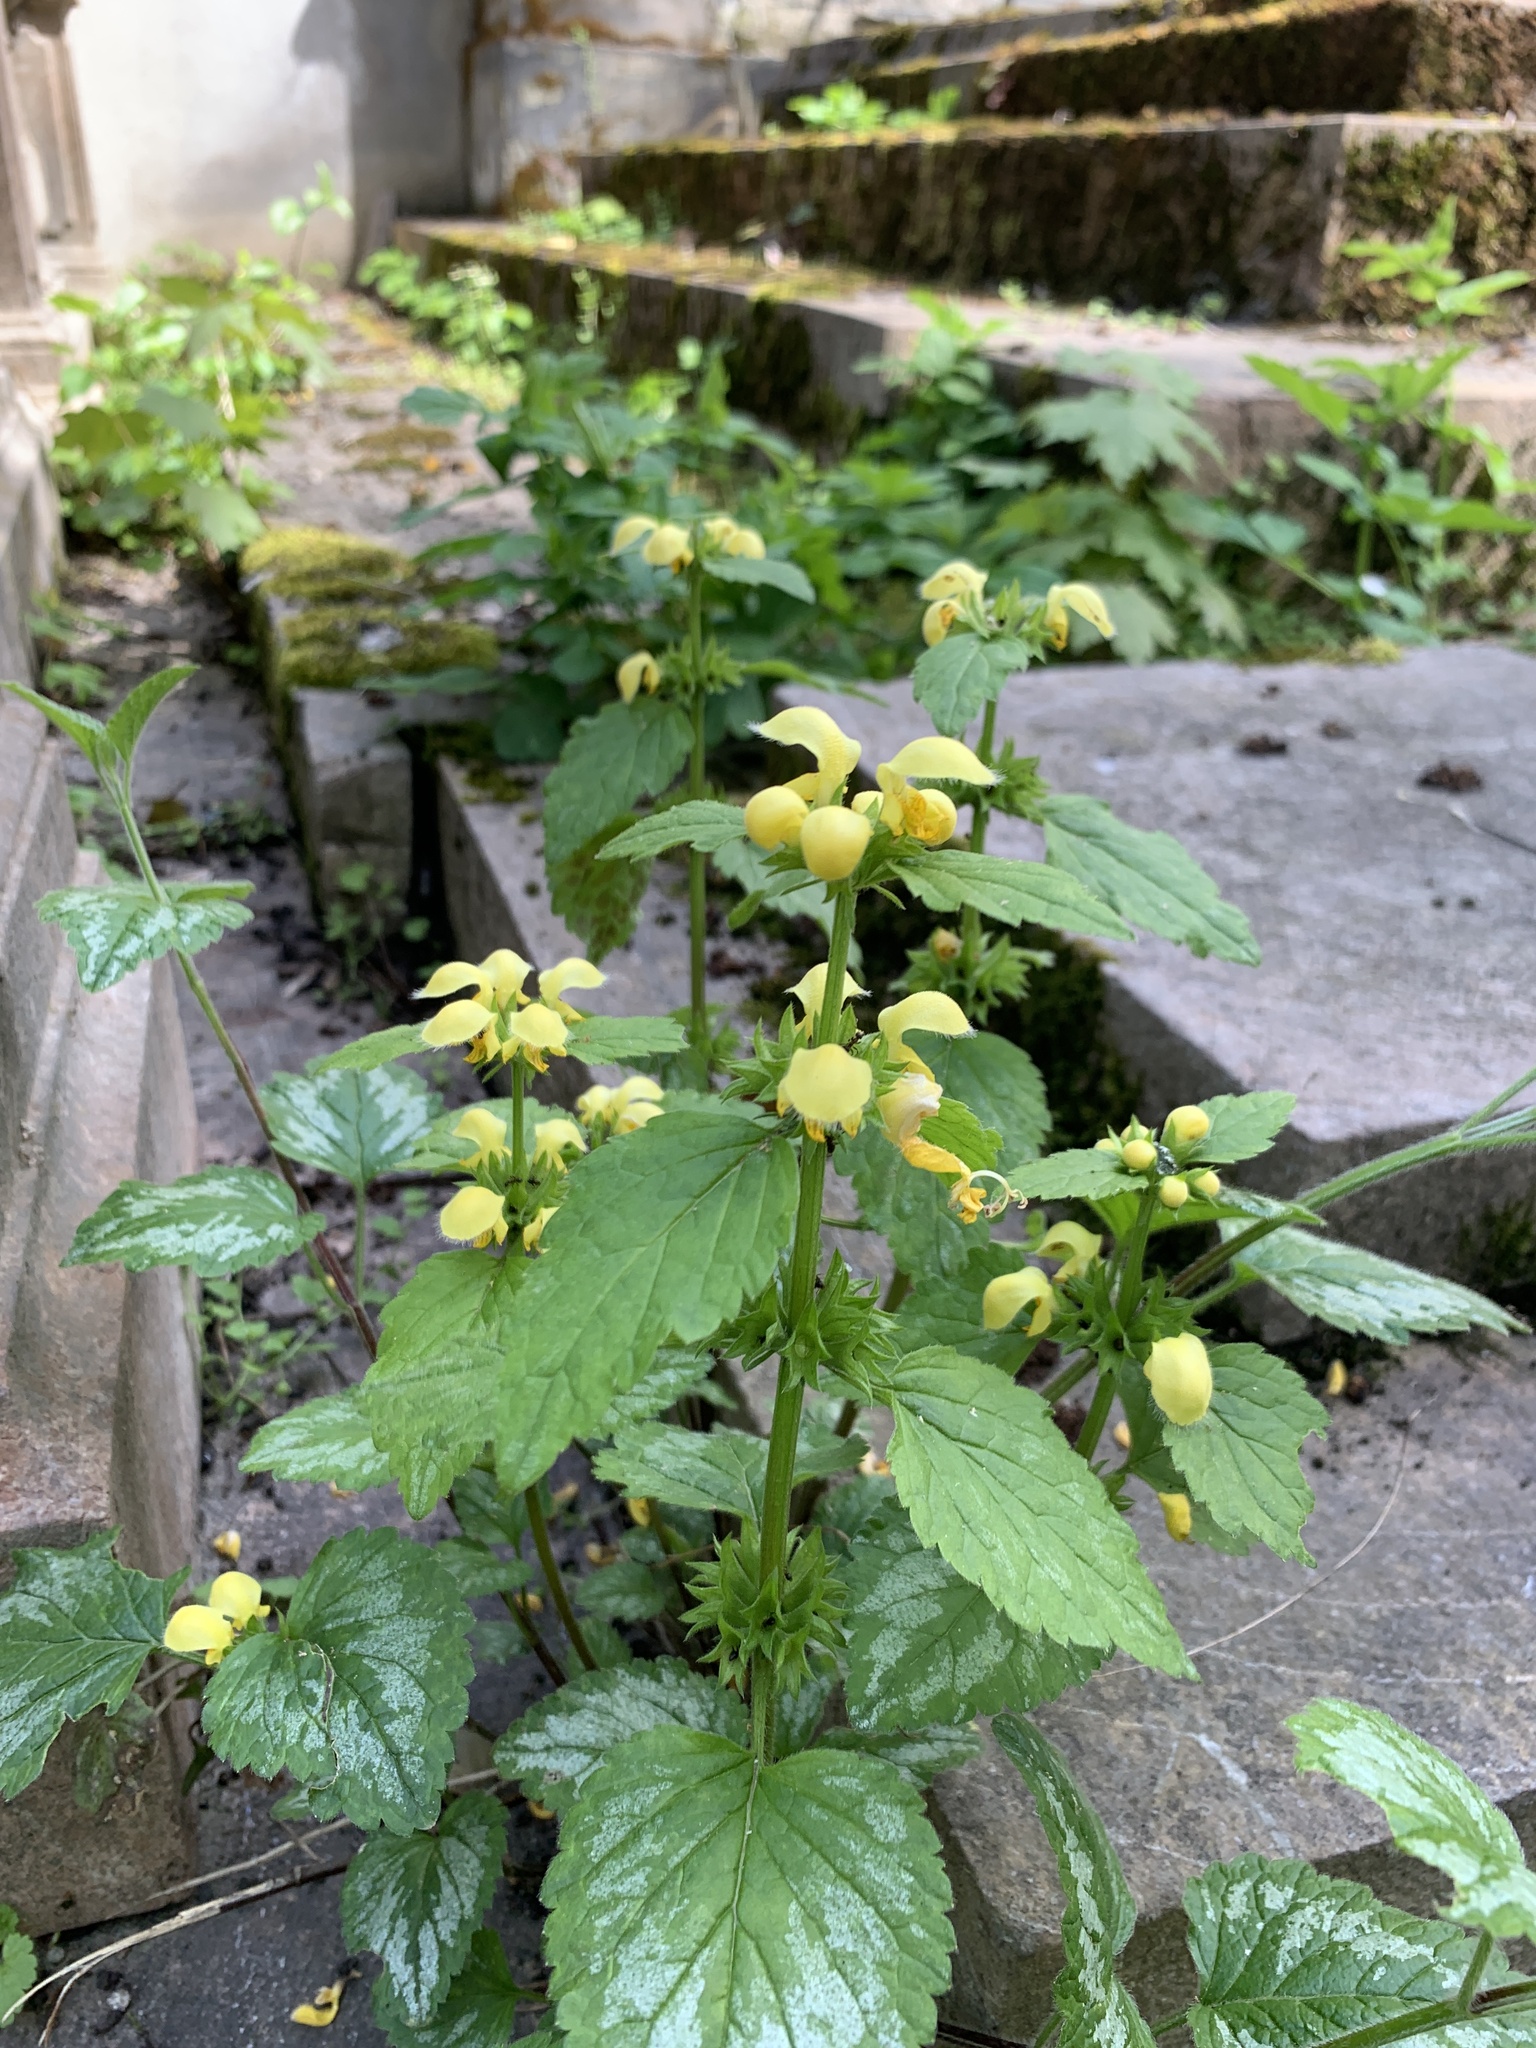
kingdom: Plantae
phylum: Tracheophyta
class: Magnoliopsida
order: Lamiales
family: Lamiaceae
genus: Lamium
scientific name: Lamium galeobdolon
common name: Yellow archangel
